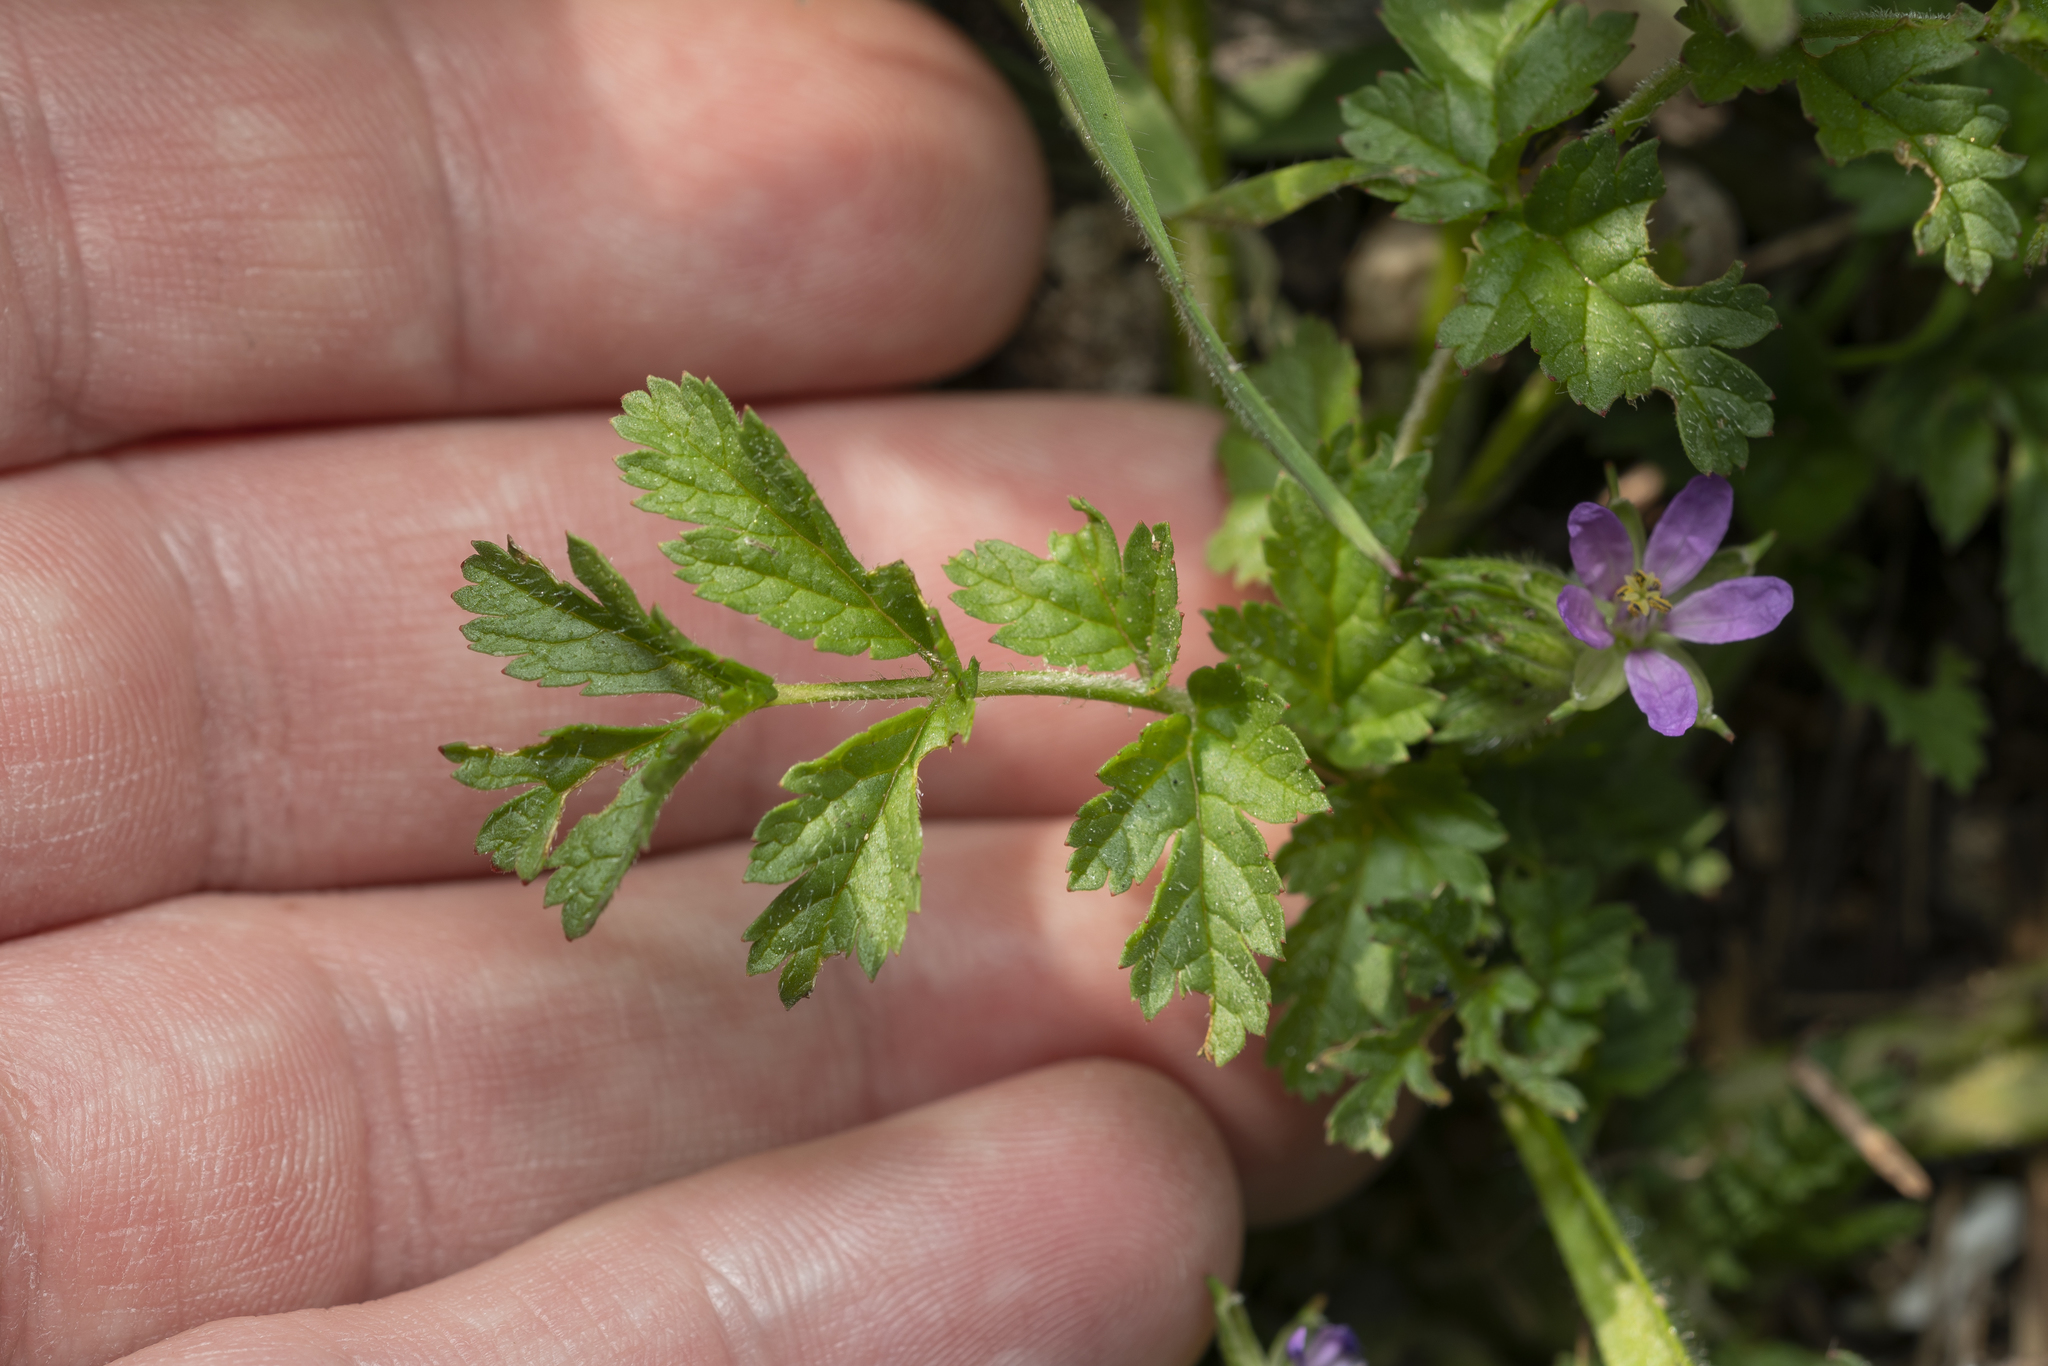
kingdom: Plantae
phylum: Tracheophyta
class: Magnoliopsida
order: Geraniales
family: Geraniaceae
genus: Erodium
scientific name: Erodium moschatum
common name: Musk stork's-bill
